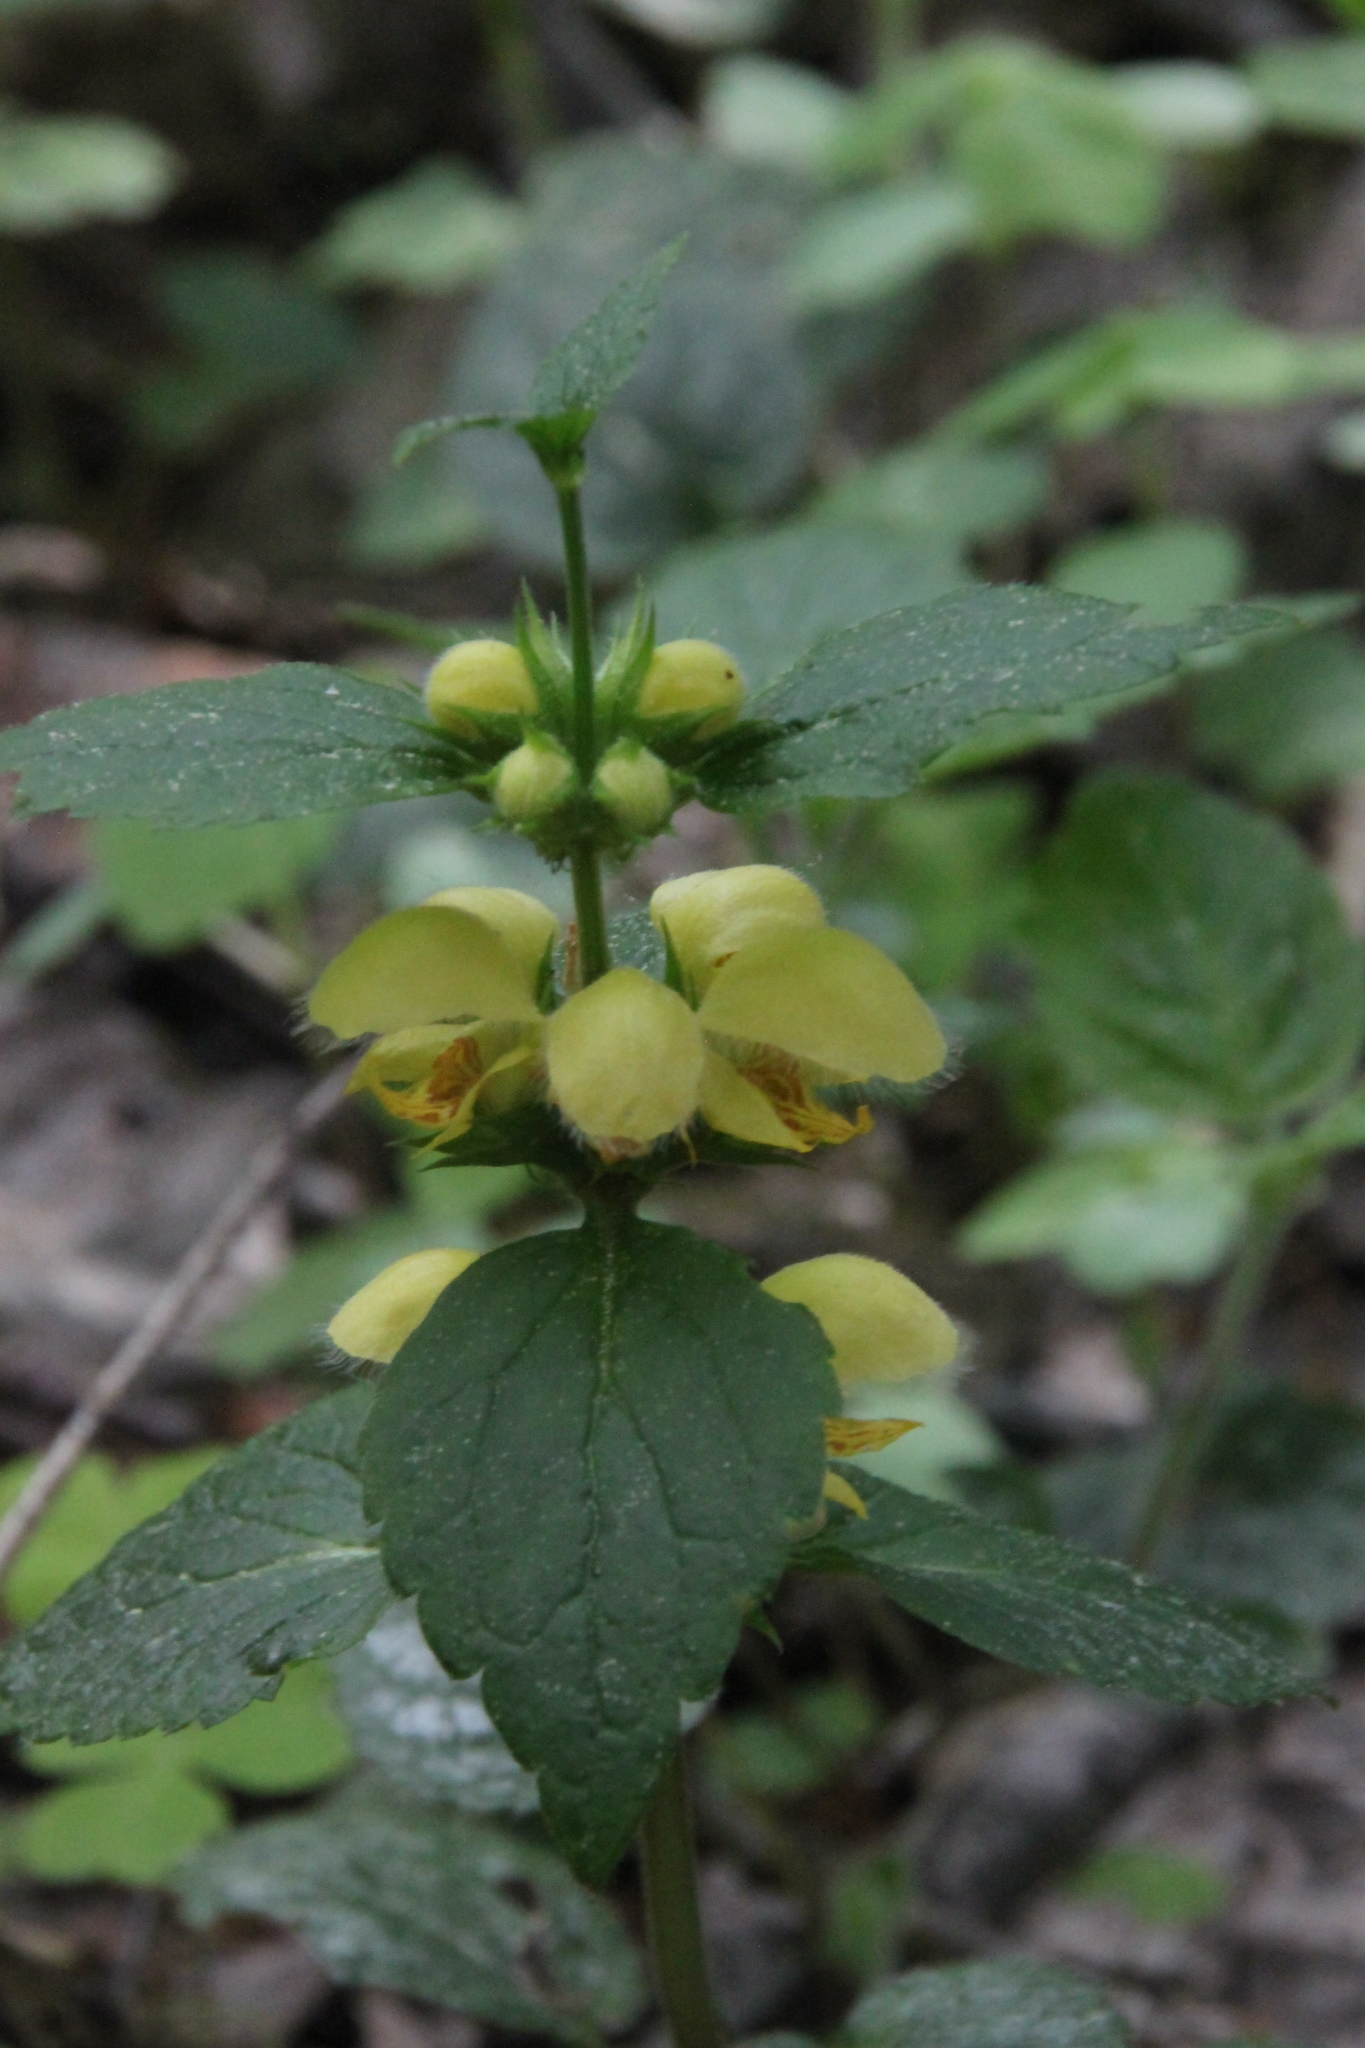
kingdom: Plantae
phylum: Tracheophyta
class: Magnoliopsida
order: Lamiales
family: Lamiaceae
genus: Lamium
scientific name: Lamium galeobdolon
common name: Yellow archangel
